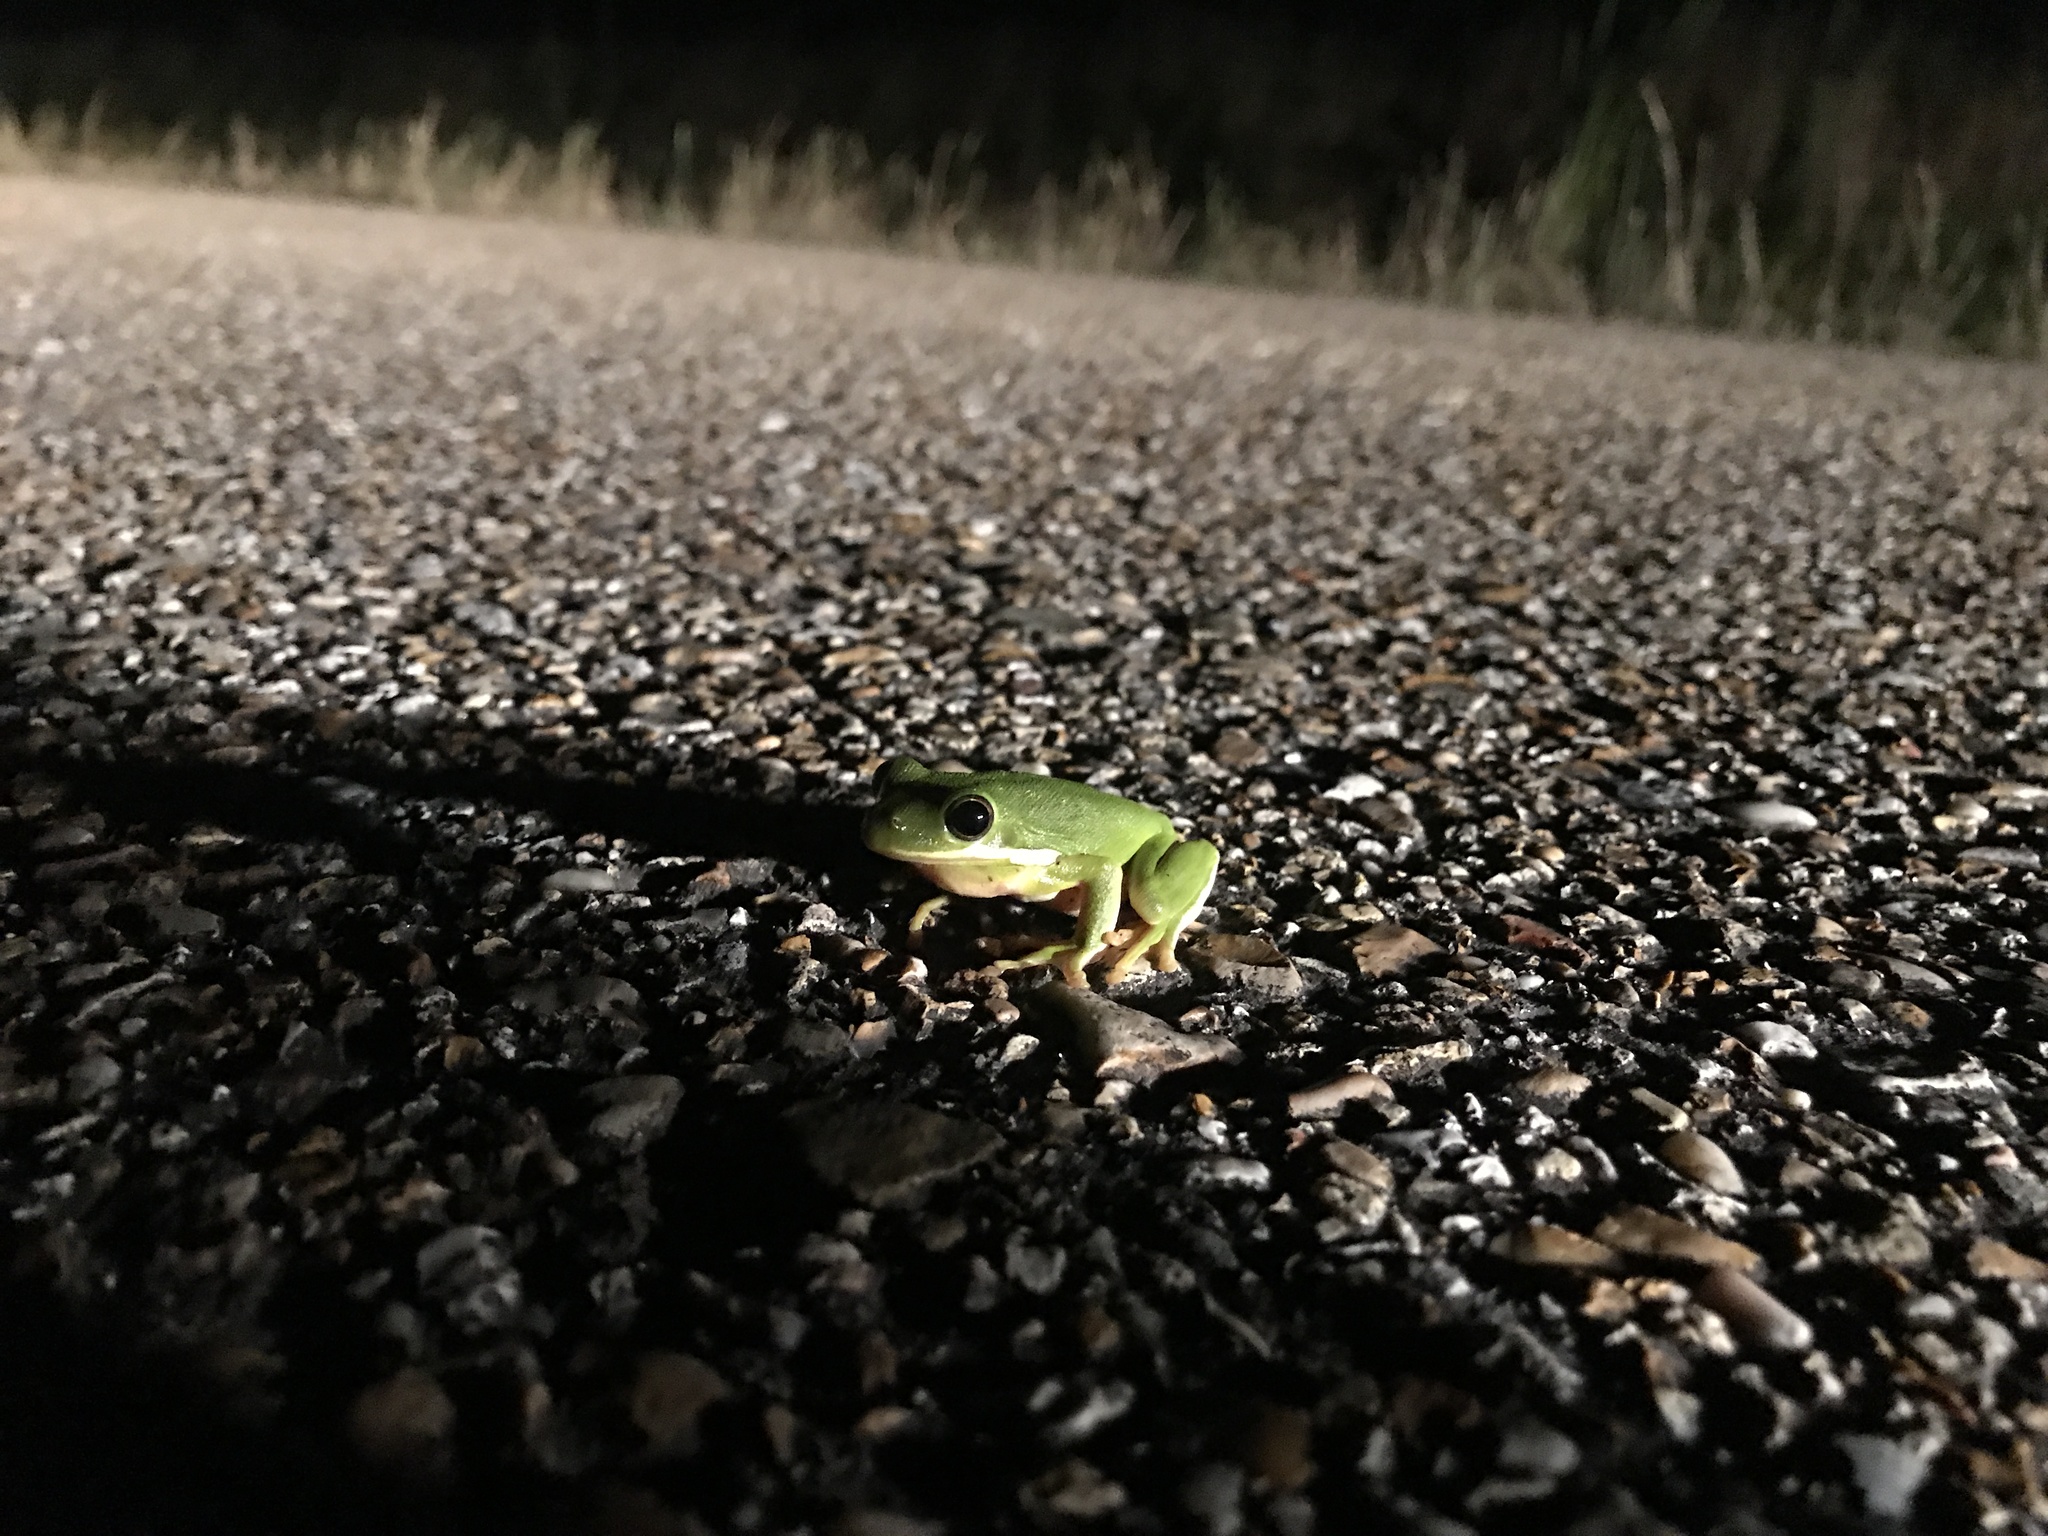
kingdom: Animalia
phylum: Chordata
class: Amphibia
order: Anura
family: Hylidae
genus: Dryophytes
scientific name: Dryophytes cinereus
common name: Green treefrog
